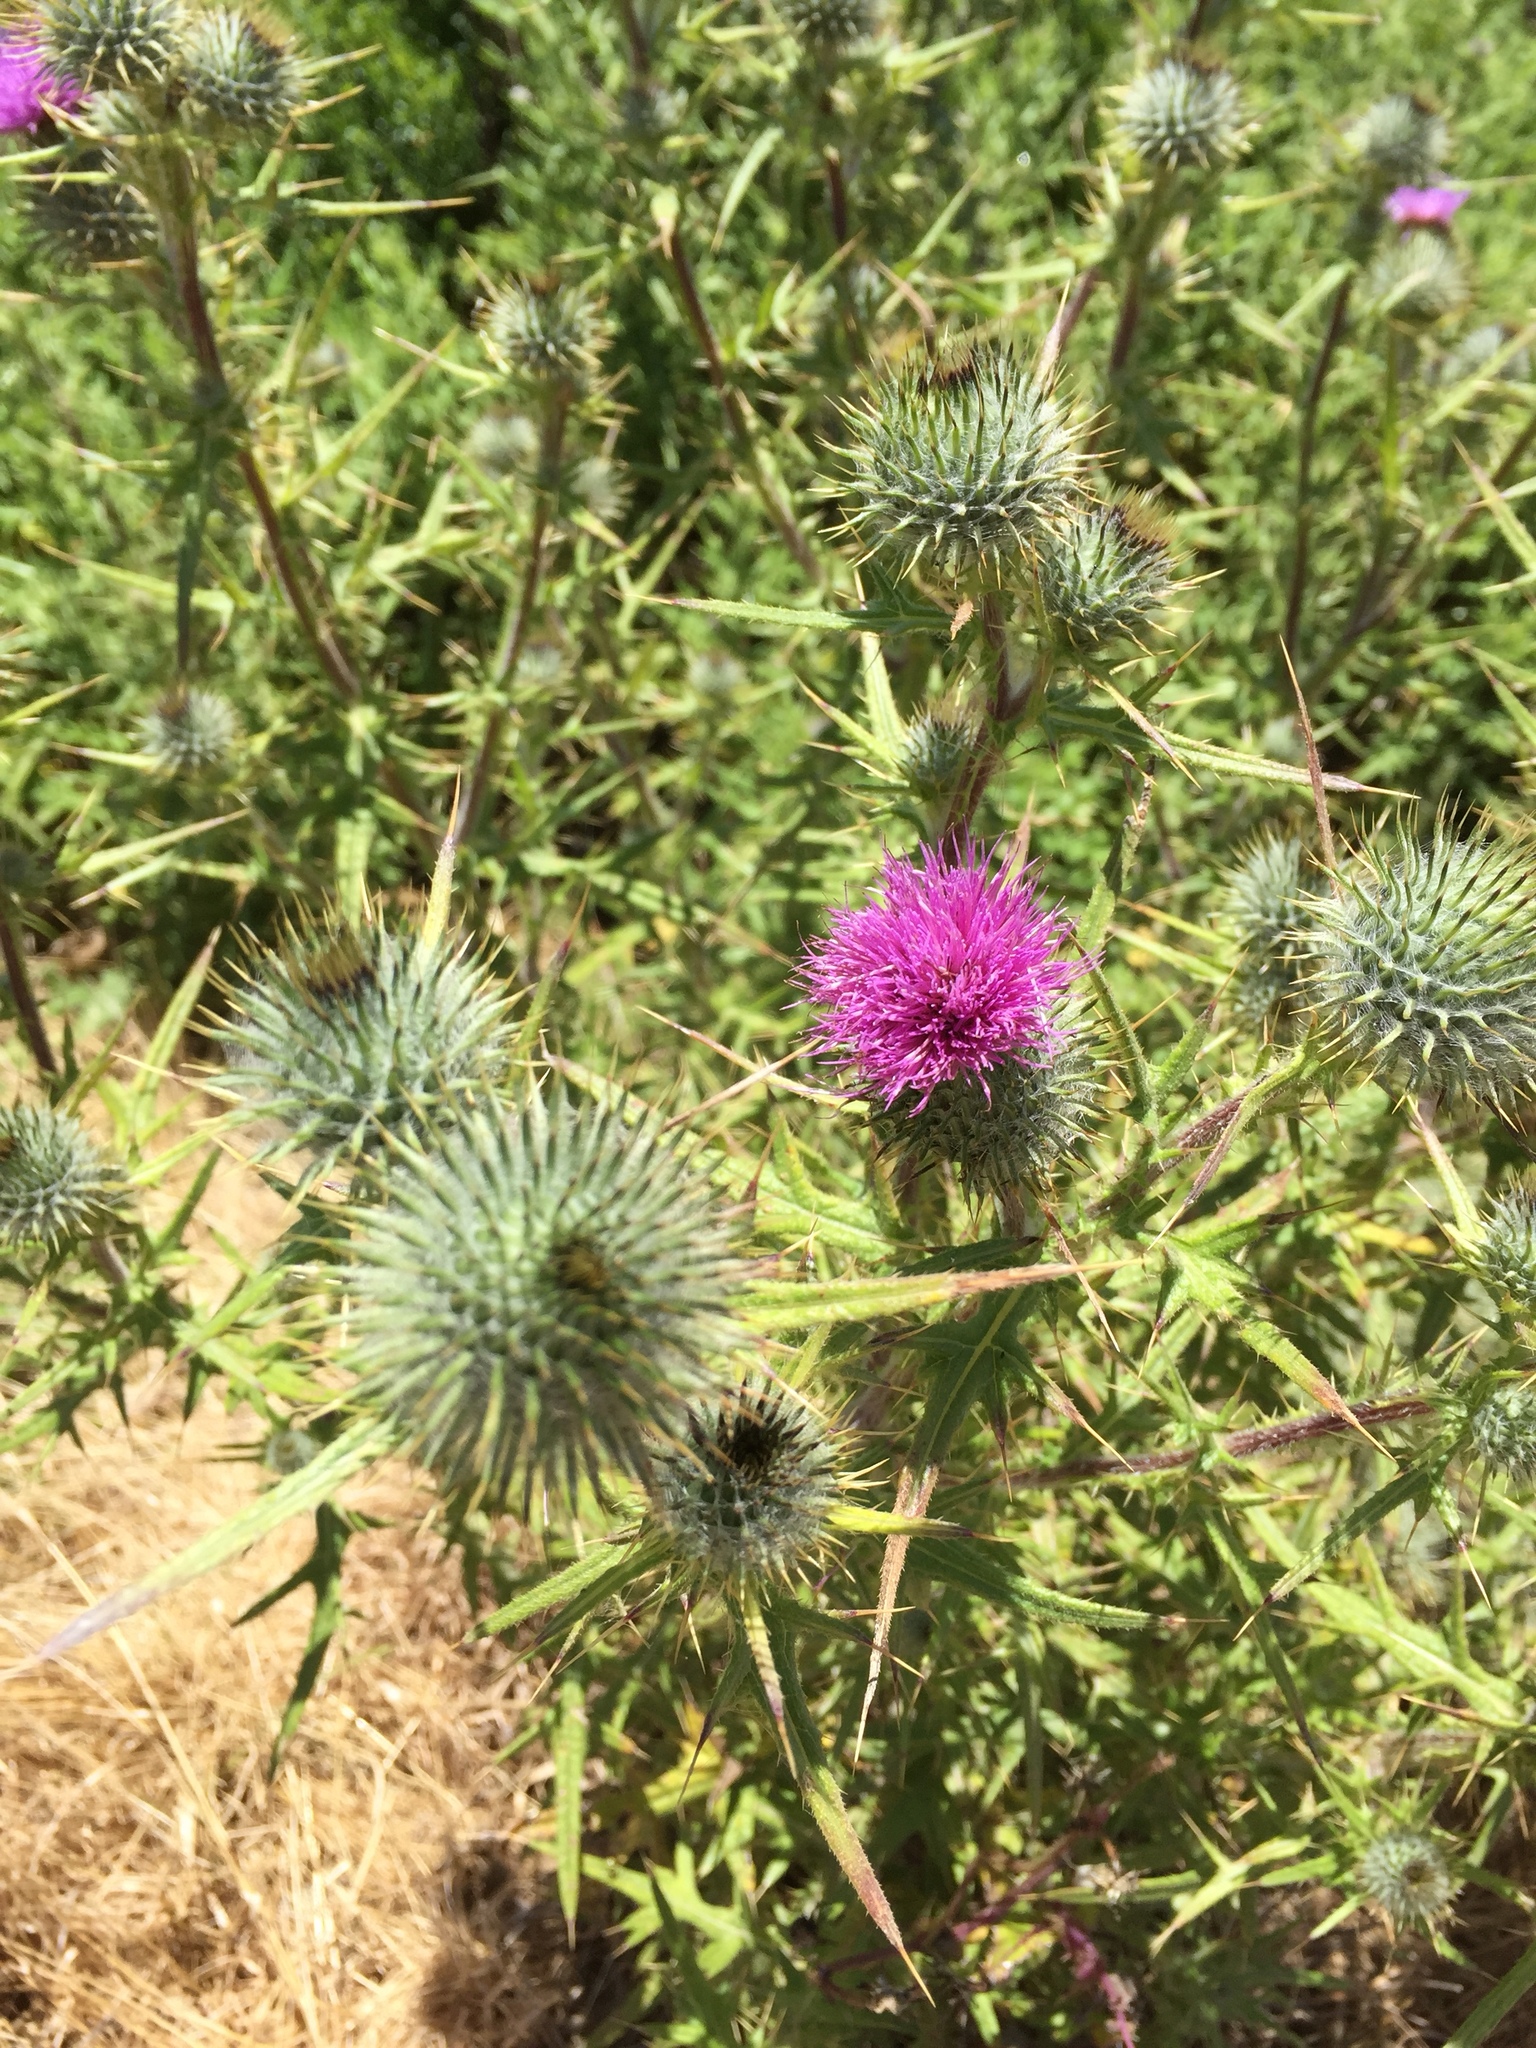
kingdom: Plantae
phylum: Tracheophyta
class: Magnoliopsida
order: Asterales
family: Asteraceae
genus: Cirsium
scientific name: Cirsium vulgare
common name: Bull thistle
